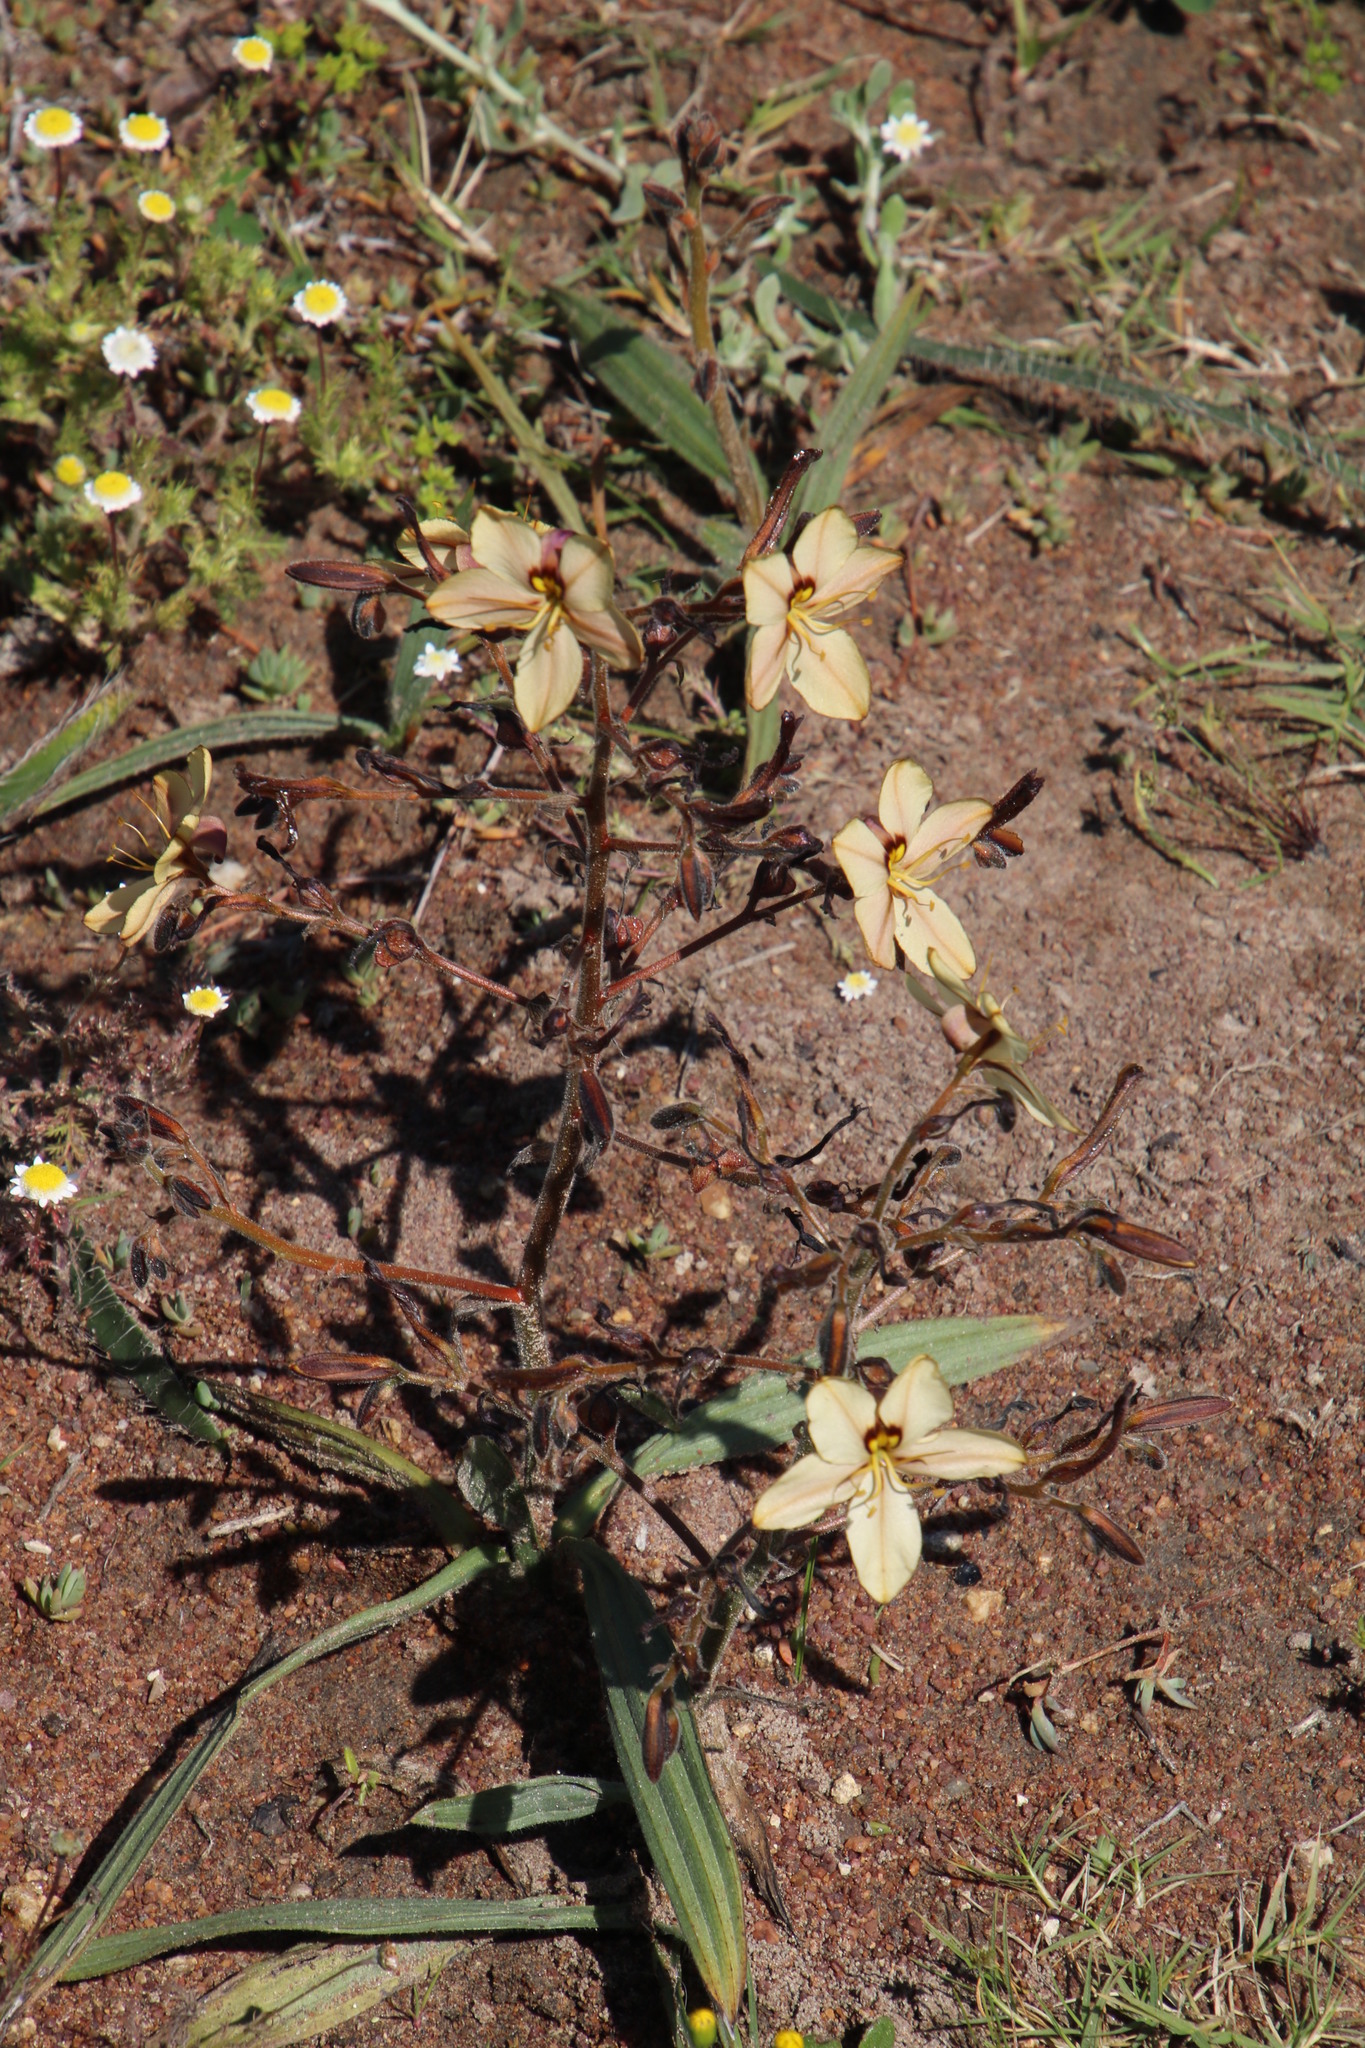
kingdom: Plantae
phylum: Tracheophyta
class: Liliopsida
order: Commelinales
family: Haemodoraceae
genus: Wachendorfia
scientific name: Wachendorfia paniculata
